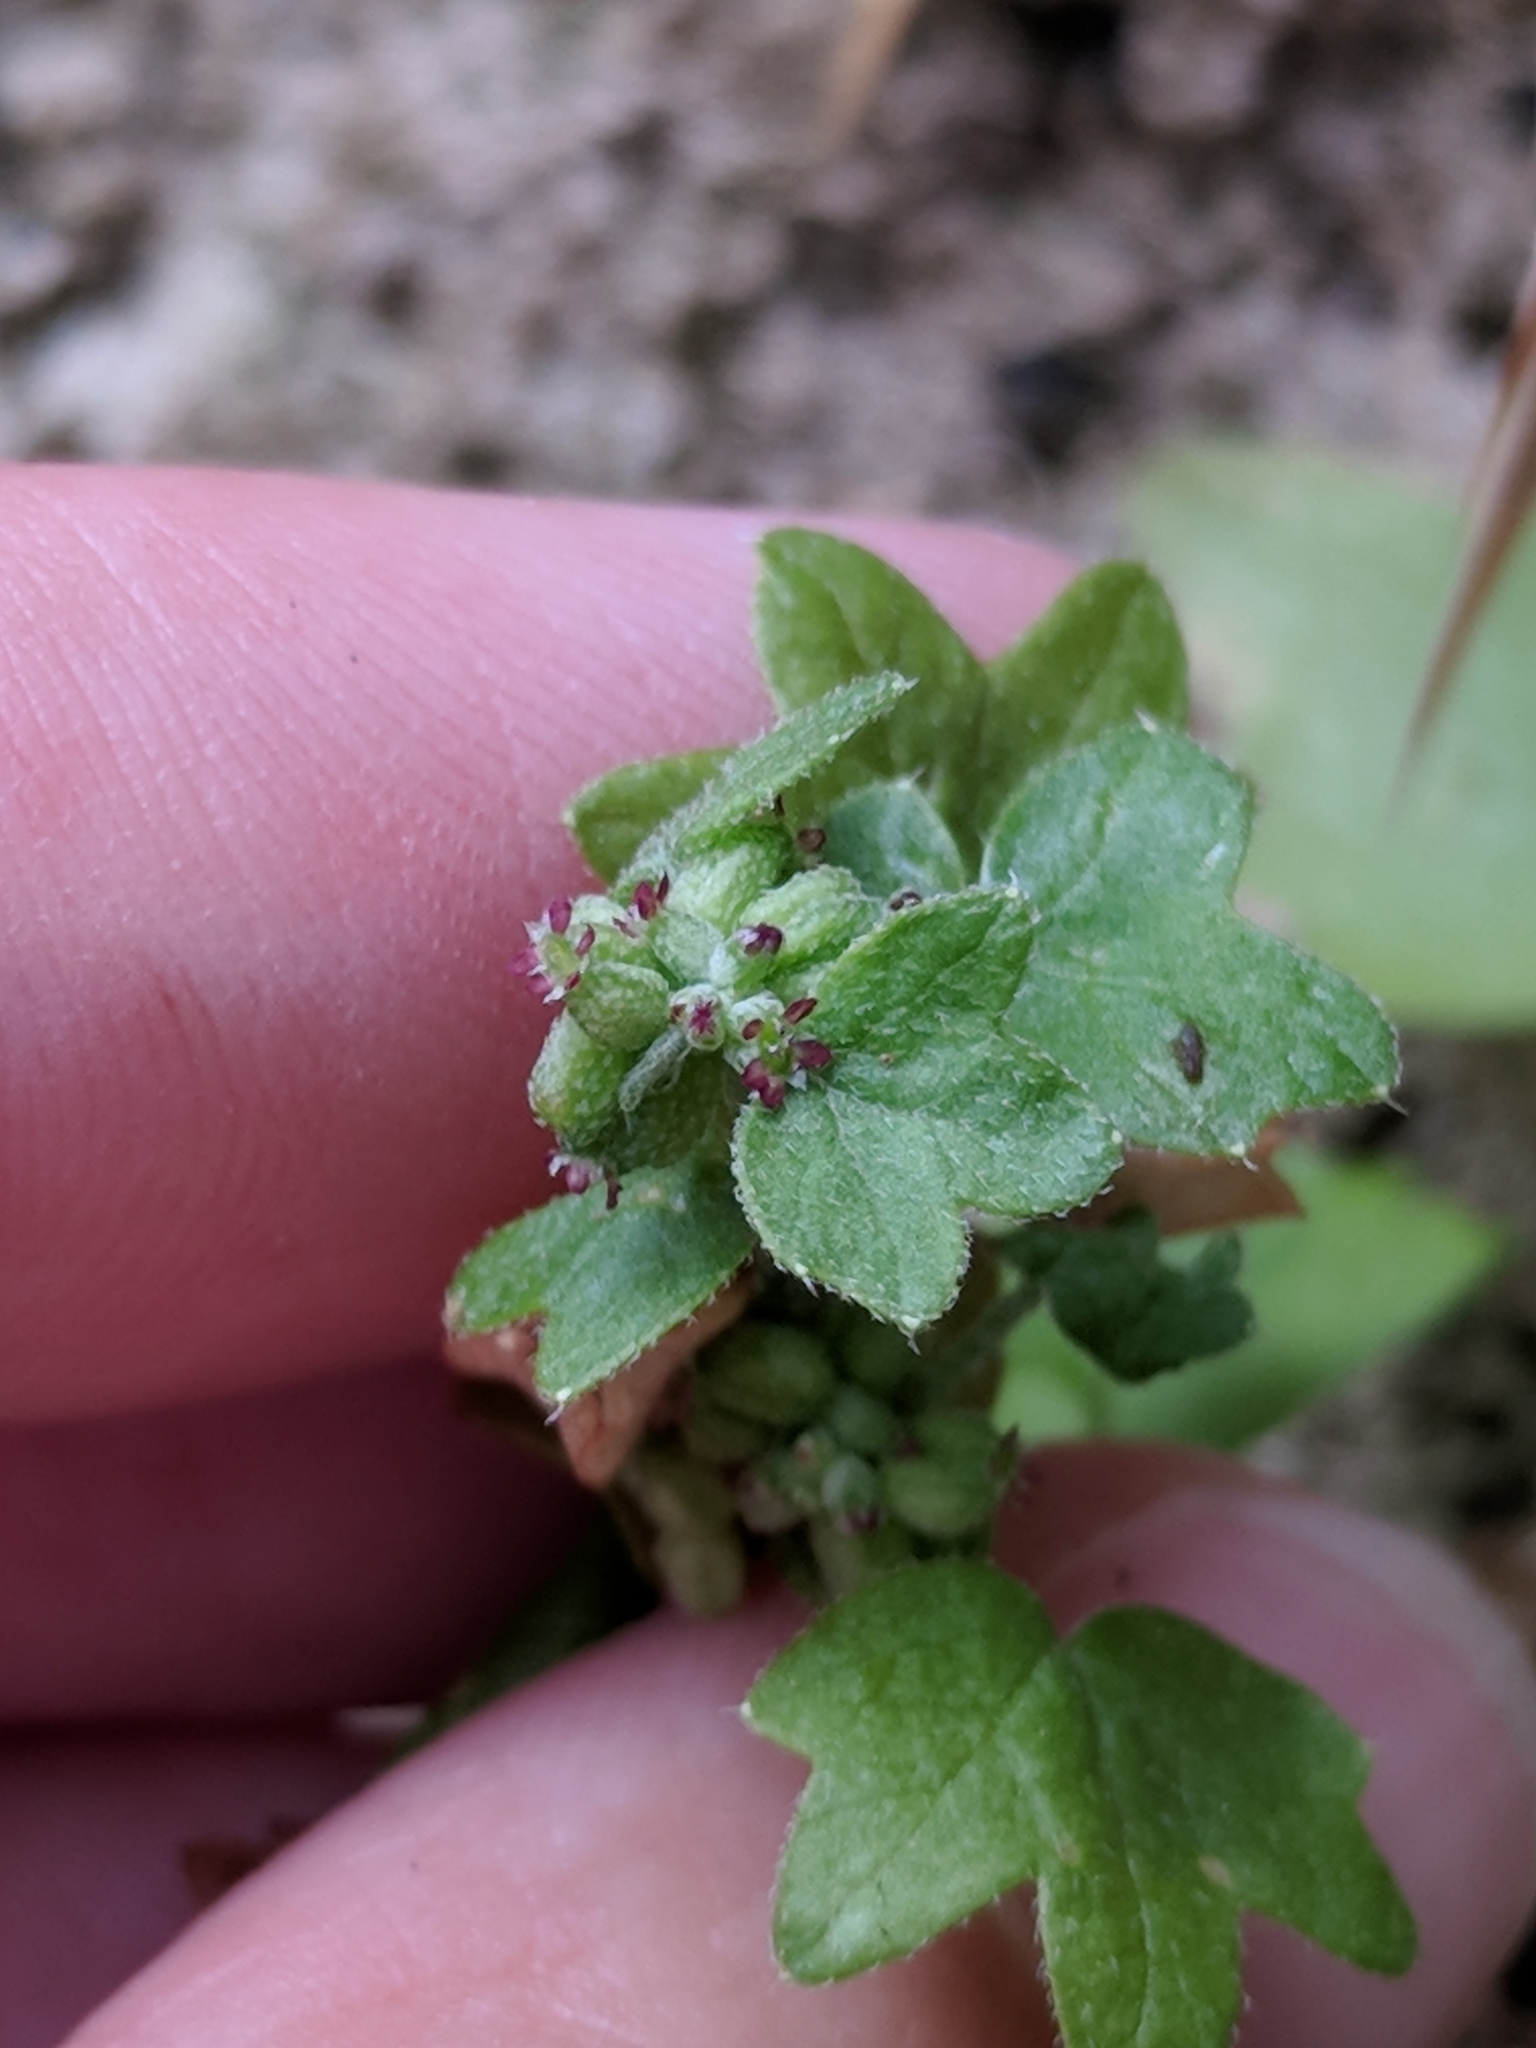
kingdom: Plantae
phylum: Tracheophyta
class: Magnoliopsida
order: Apiales
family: Apiaceae
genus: Bowlesia
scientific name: Bowlesia incana
